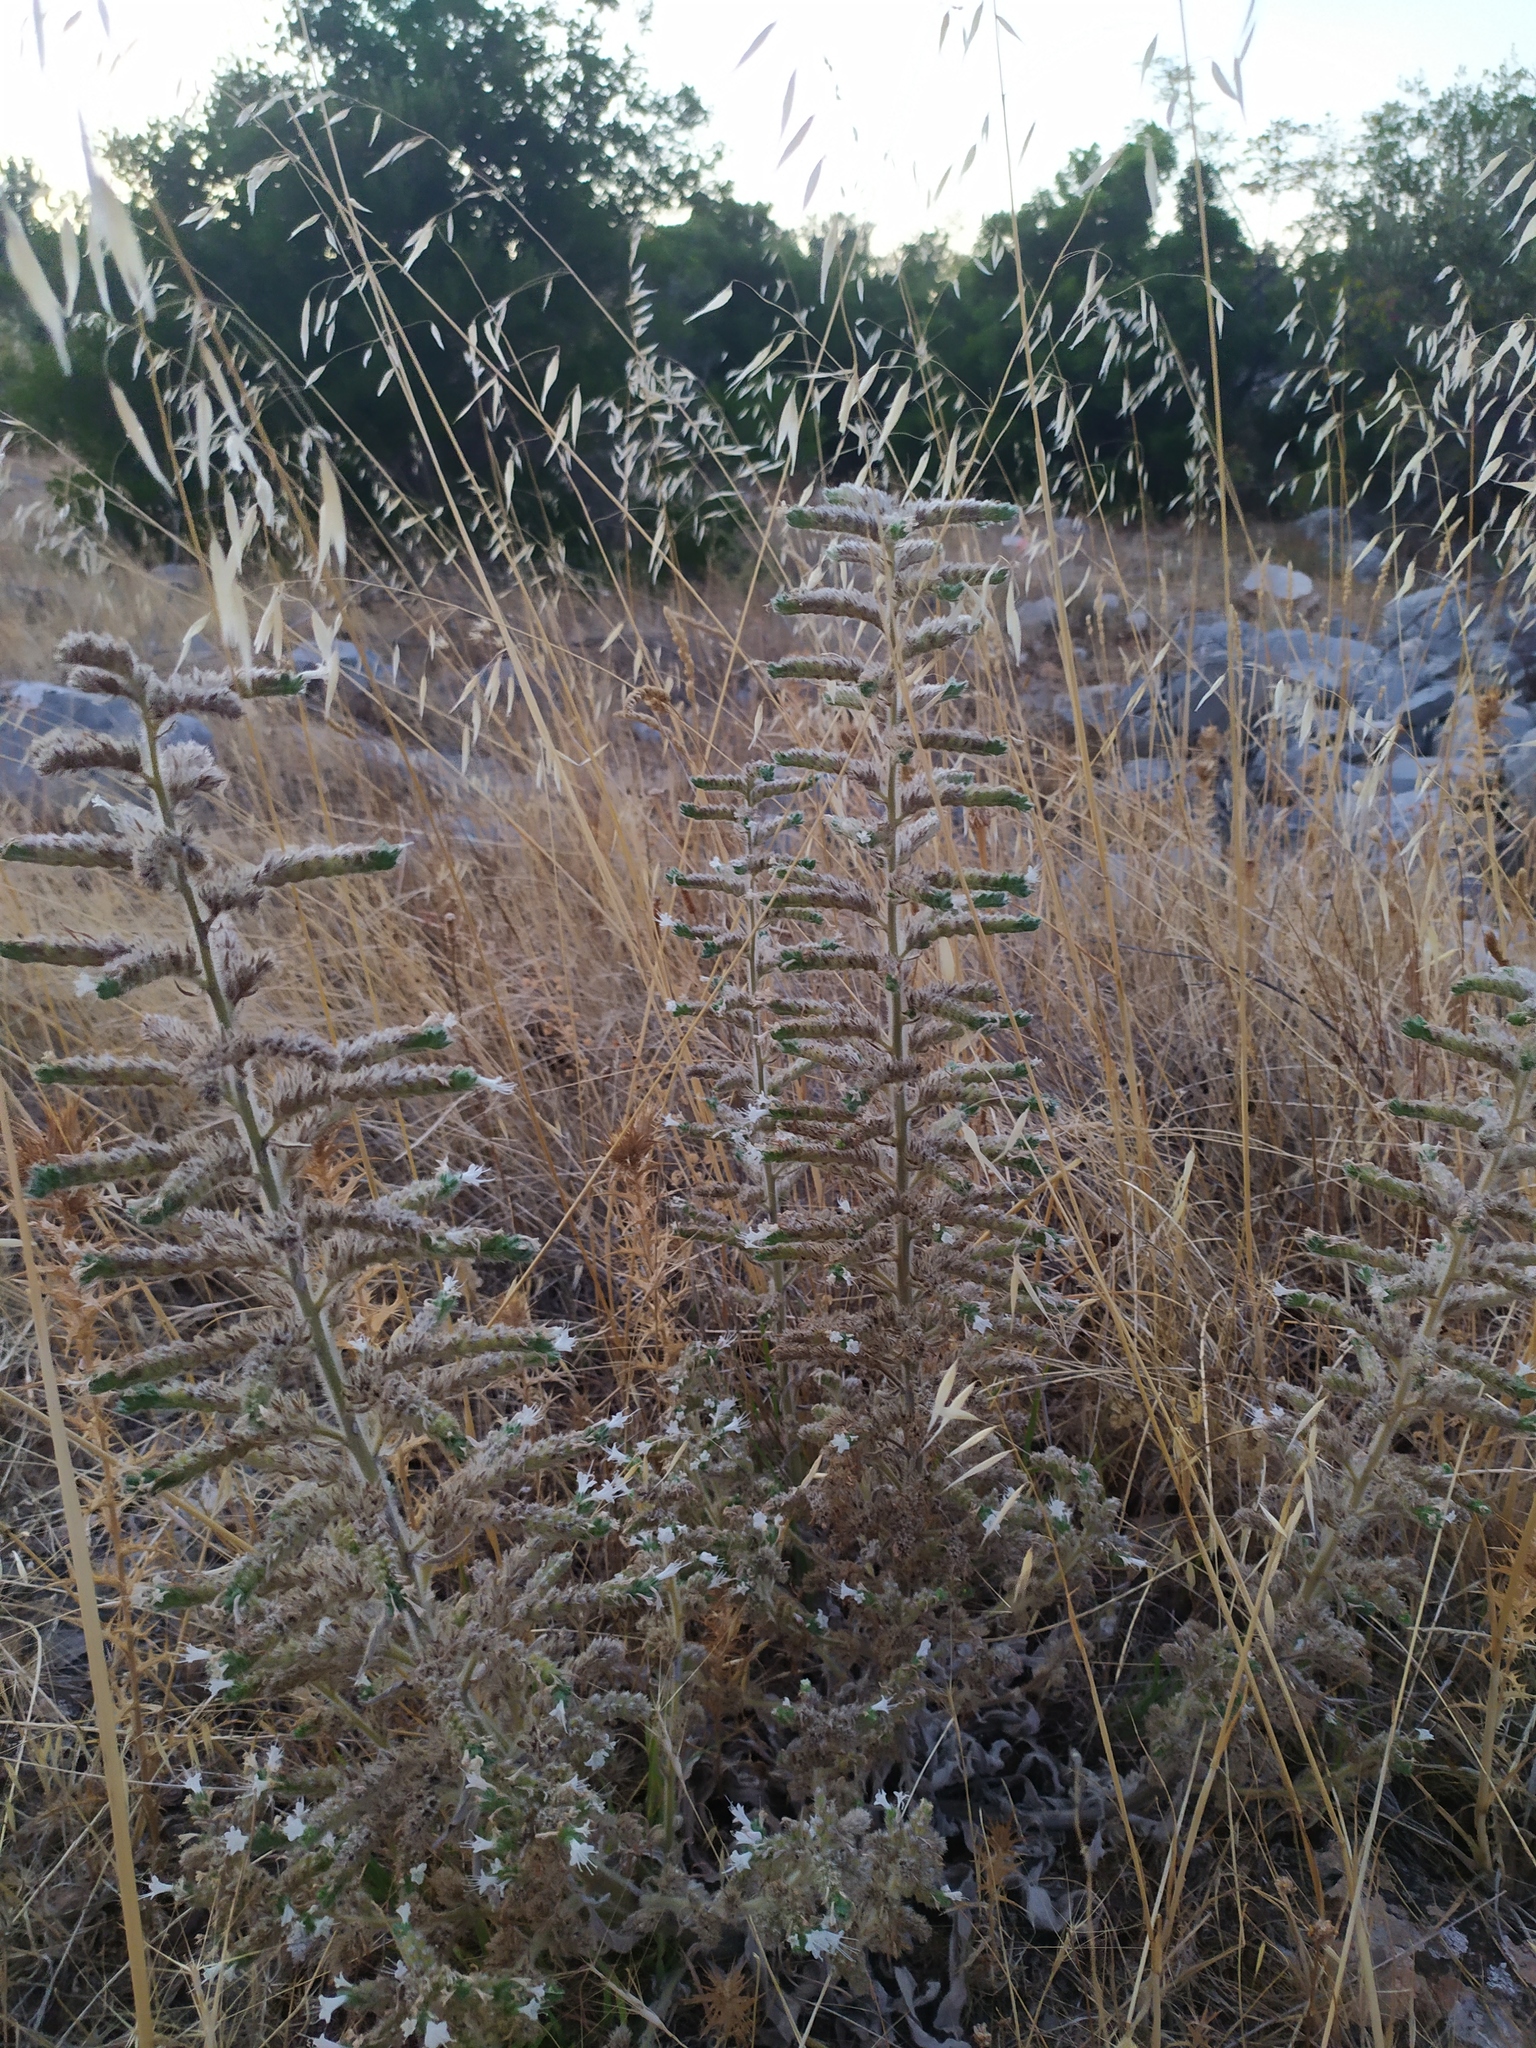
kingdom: Plantae
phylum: Tracheophyta
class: Magnoliopsida
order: Boraginales
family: Boraginaceae
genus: Echium
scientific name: Echium italicum
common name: Italian viper's bugloss
